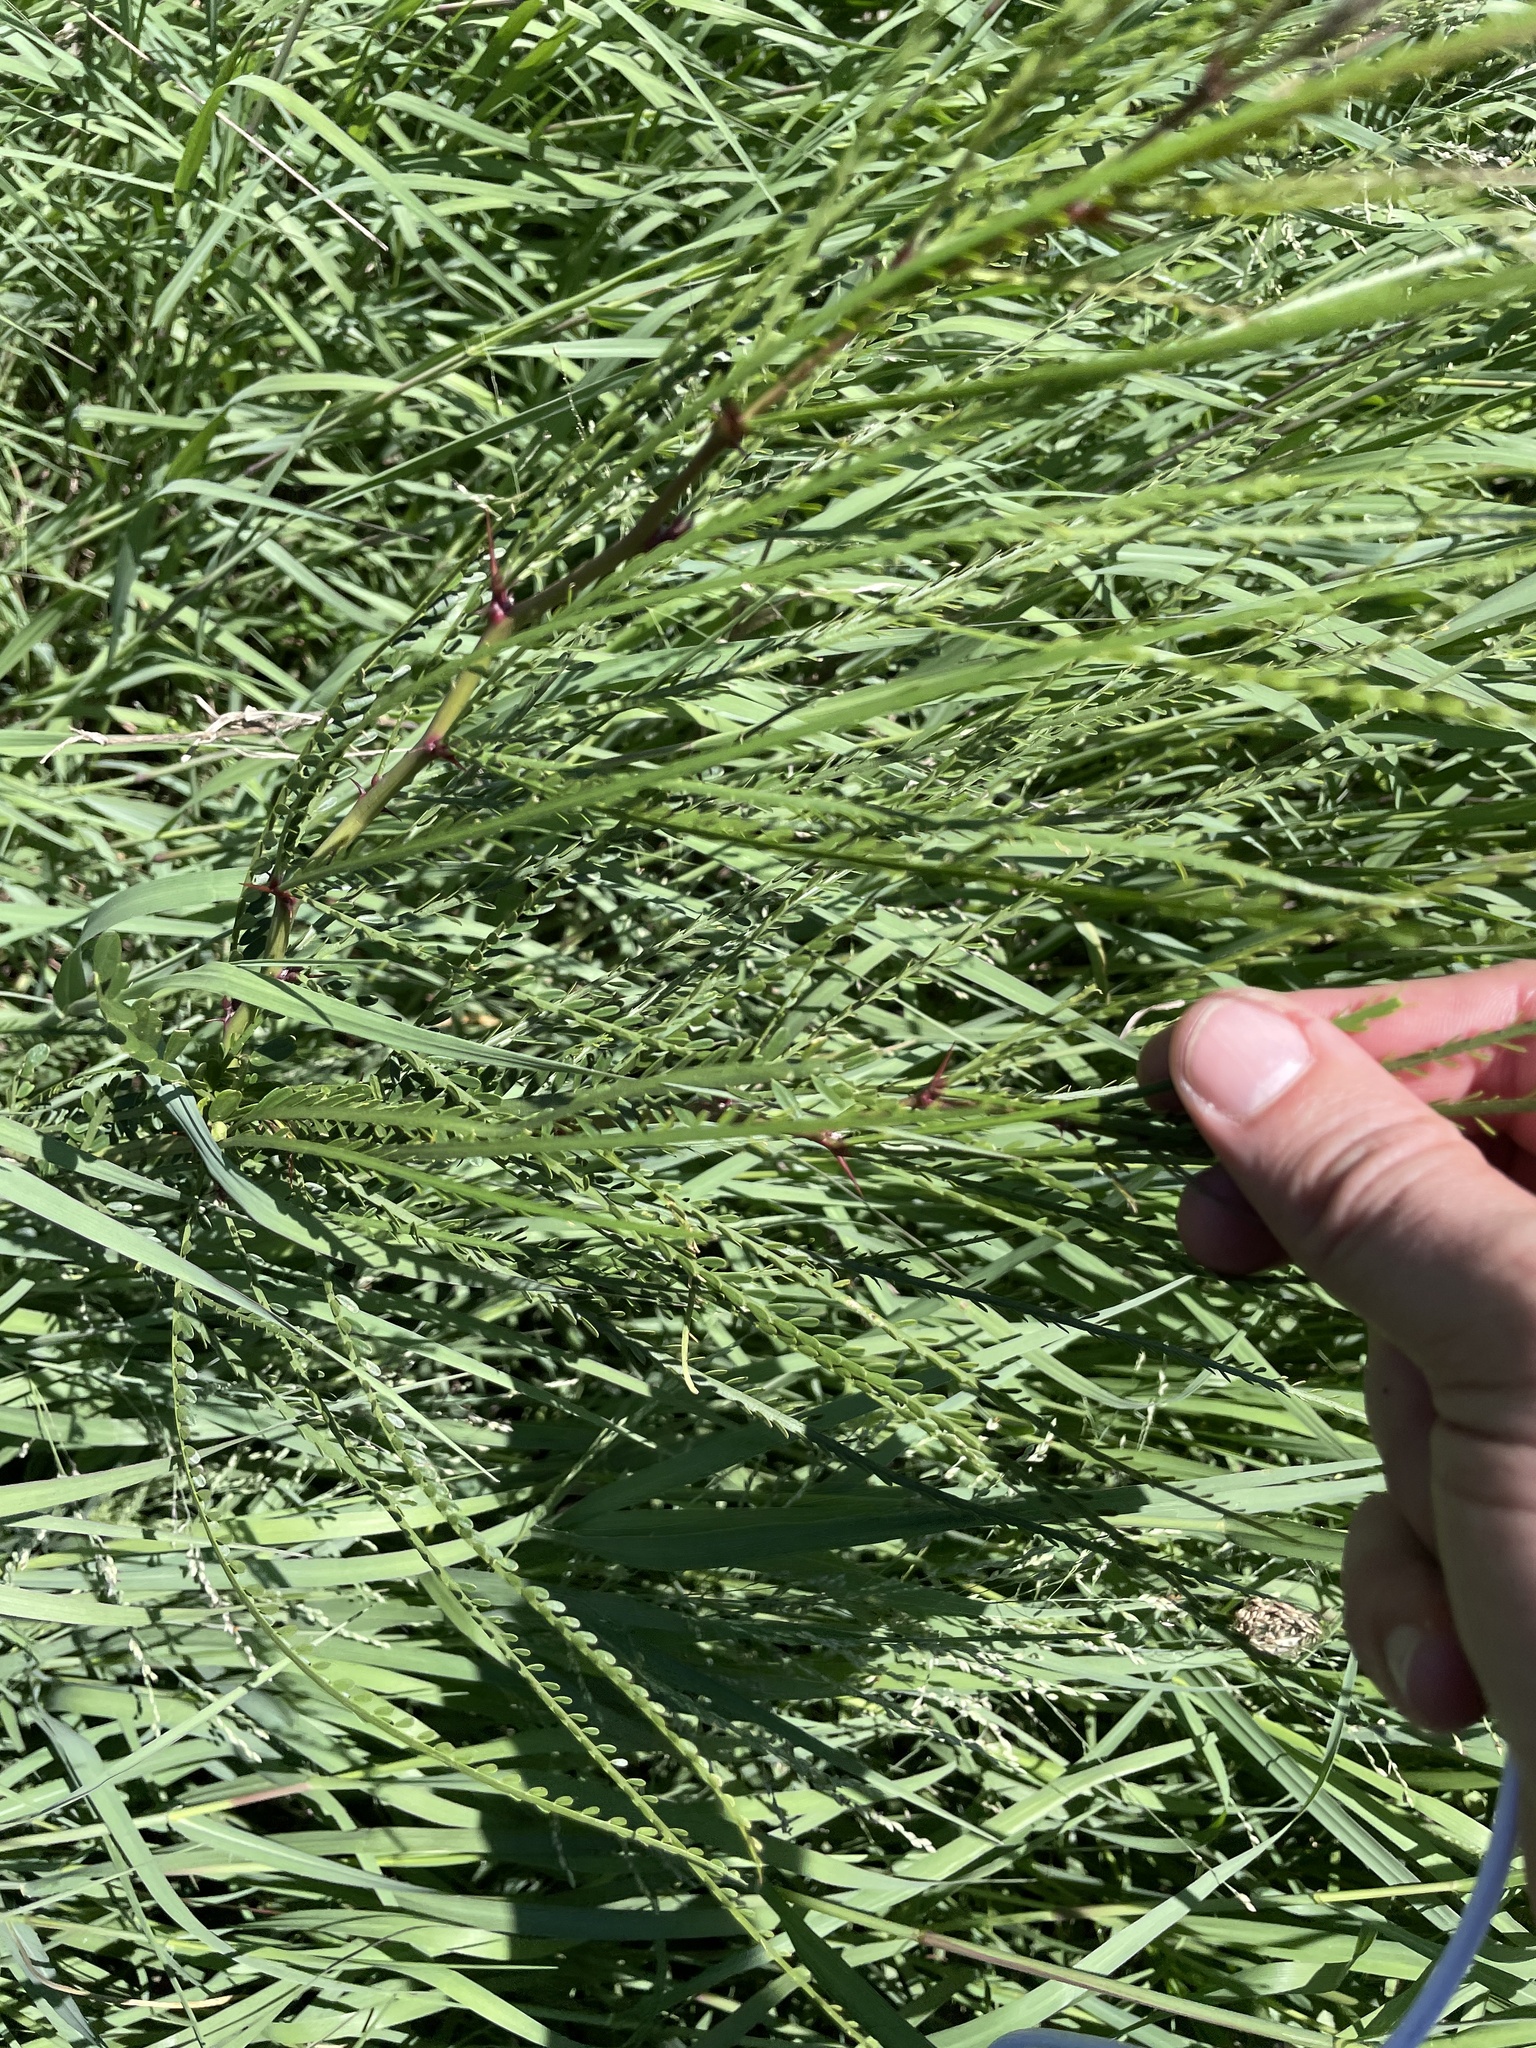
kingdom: Plantae
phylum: Tracheophyta
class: Magnoliopsida
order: Fabales
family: Fabaceae
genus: Parkinsonia
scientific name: Parkinsonia aculeata
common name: Jerusalem thorn
